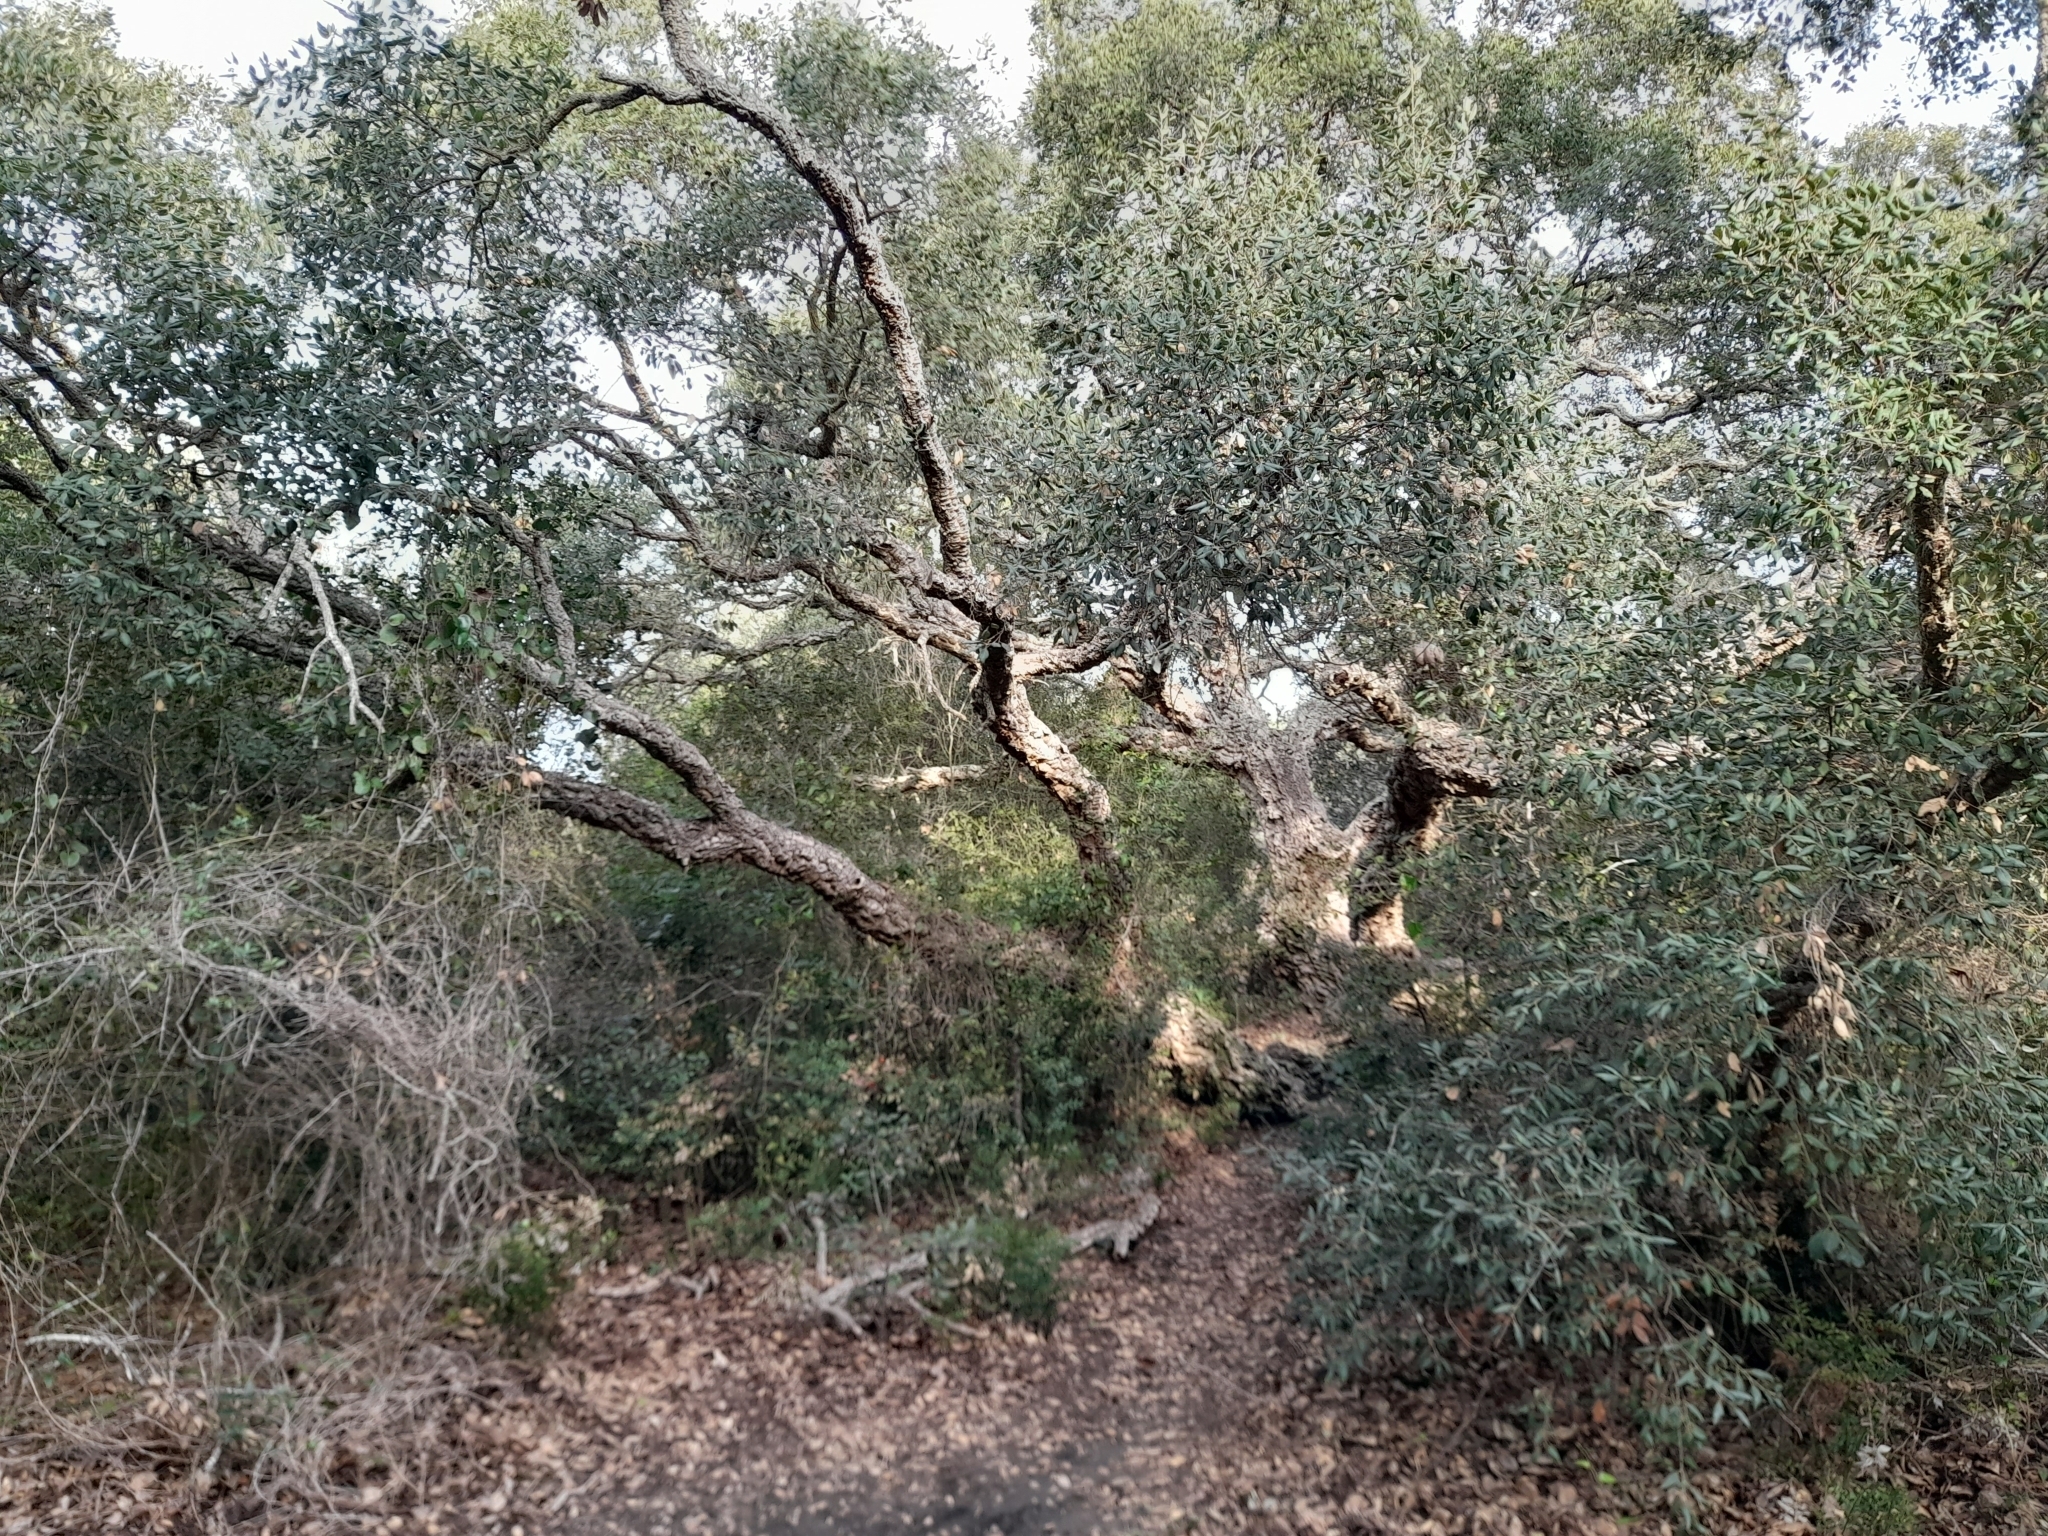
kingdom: Plantae
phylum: Tracheophyta
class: Magnoliopsida
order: Fagales
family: Fagaceae
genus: Quercus
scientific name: Quercus suber
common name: Cork oak
